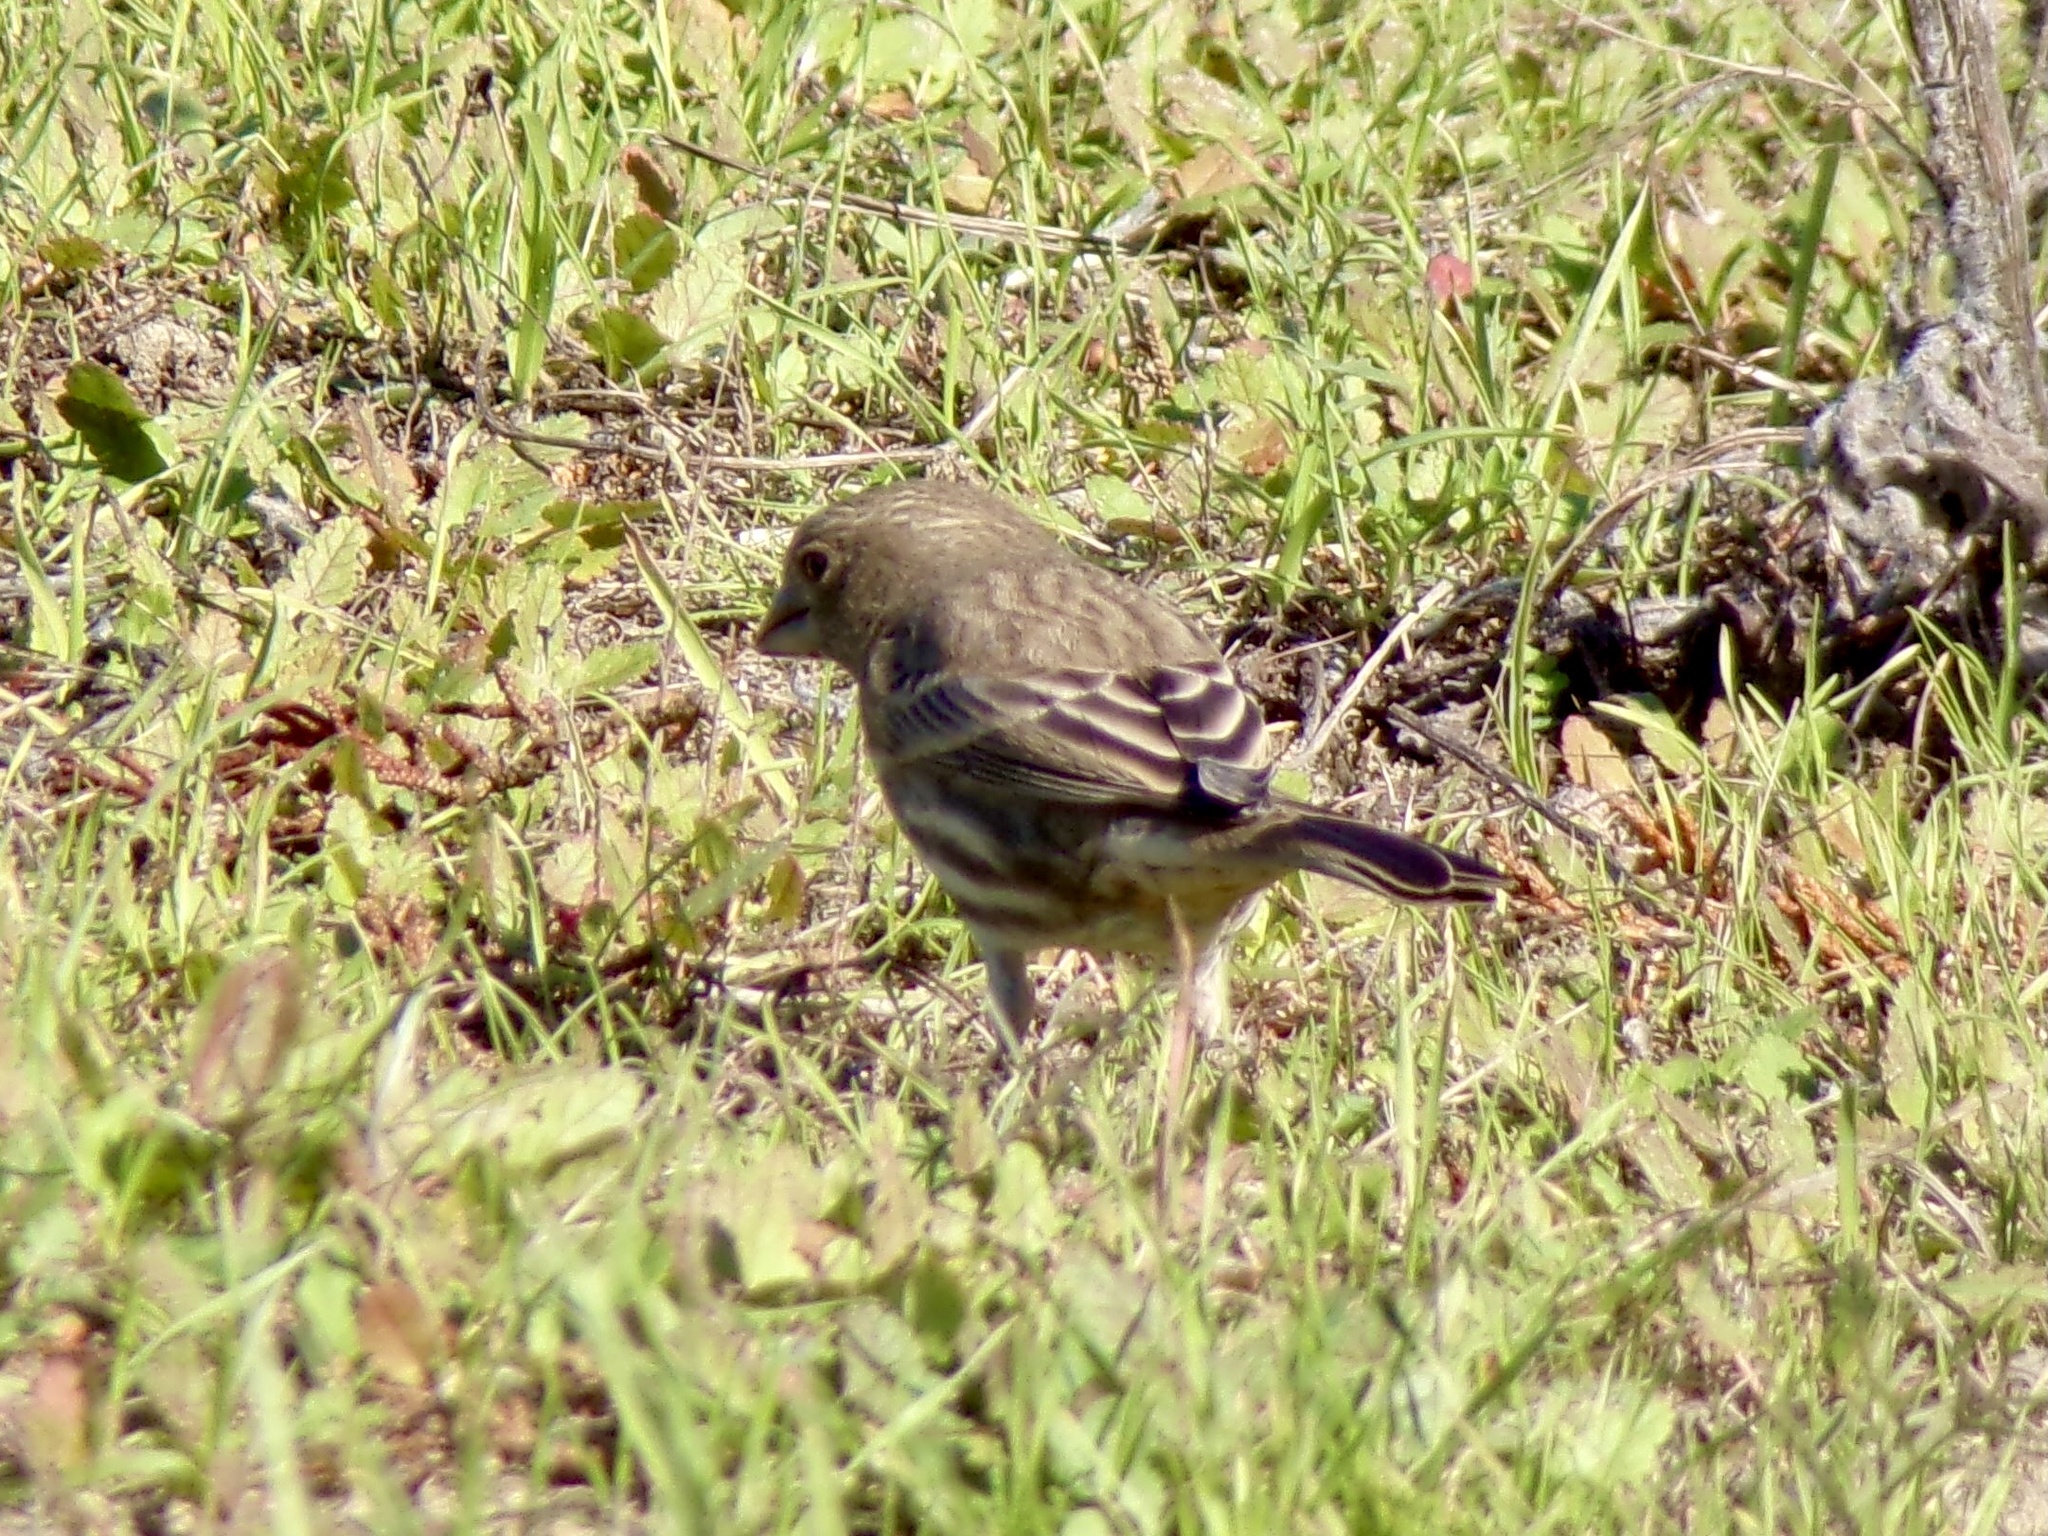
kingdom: Animalia
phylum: Chordata
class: Aves
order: Passeriformes
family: Fringillidae
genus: Haemorhous
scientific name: Haemorhous mexicanus
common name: House finch
